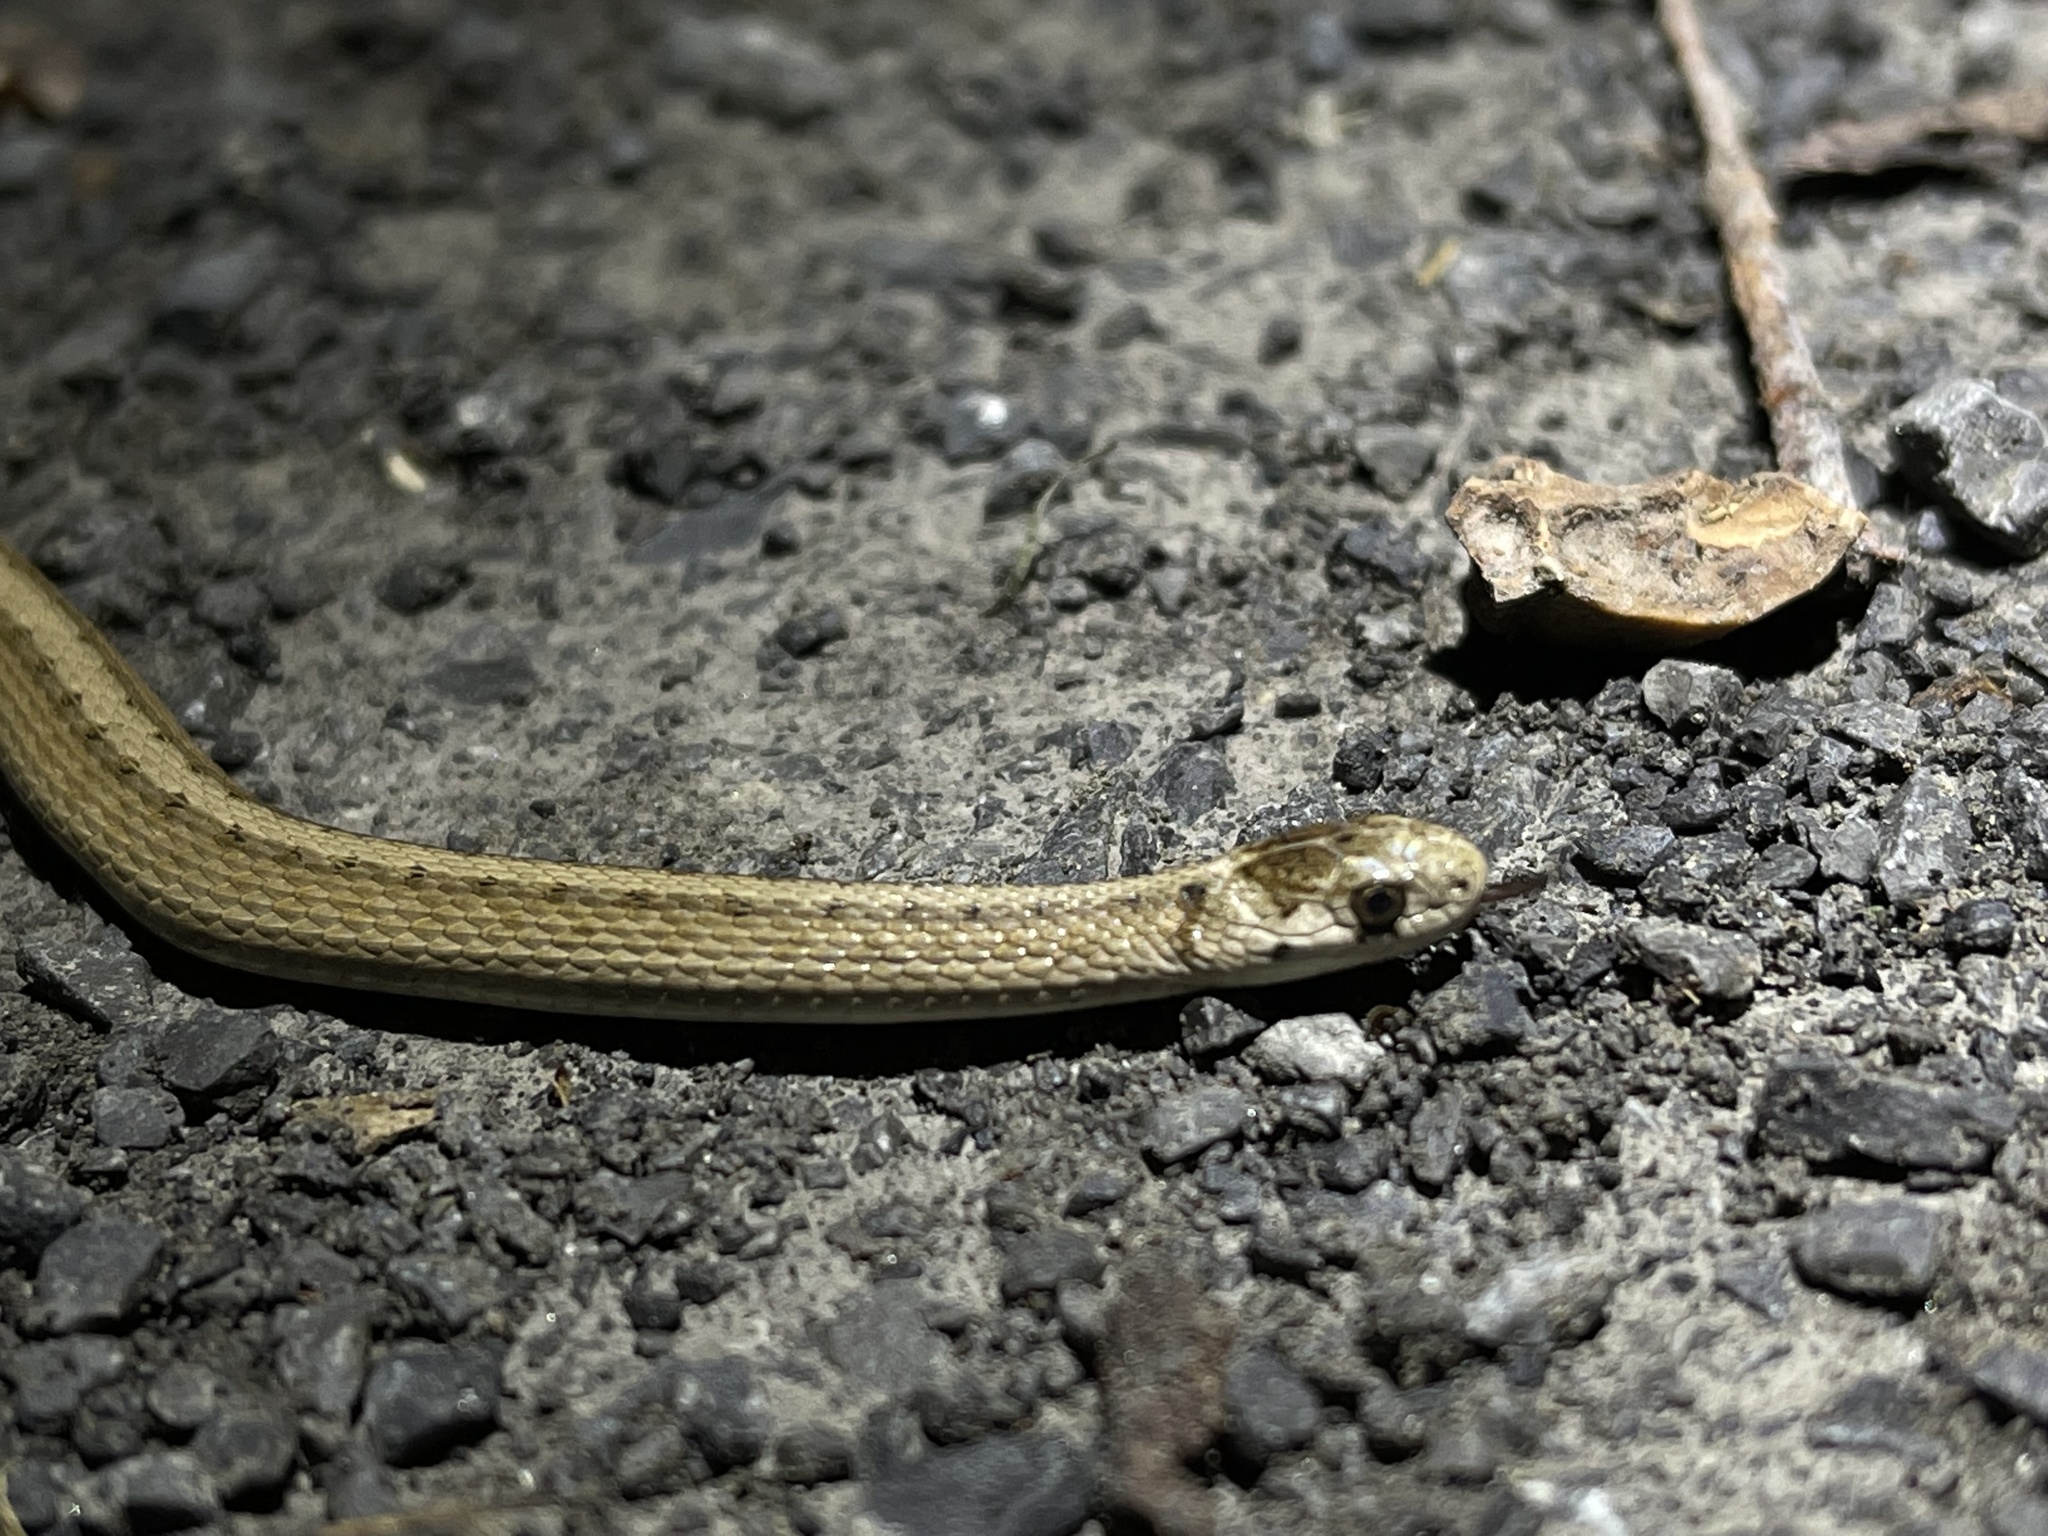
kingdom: Animalia
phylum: Chordata
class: Squamata
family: Colubridae
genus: Storeria
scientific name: Storeria dekayi
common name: (dekay’s) brown snake
